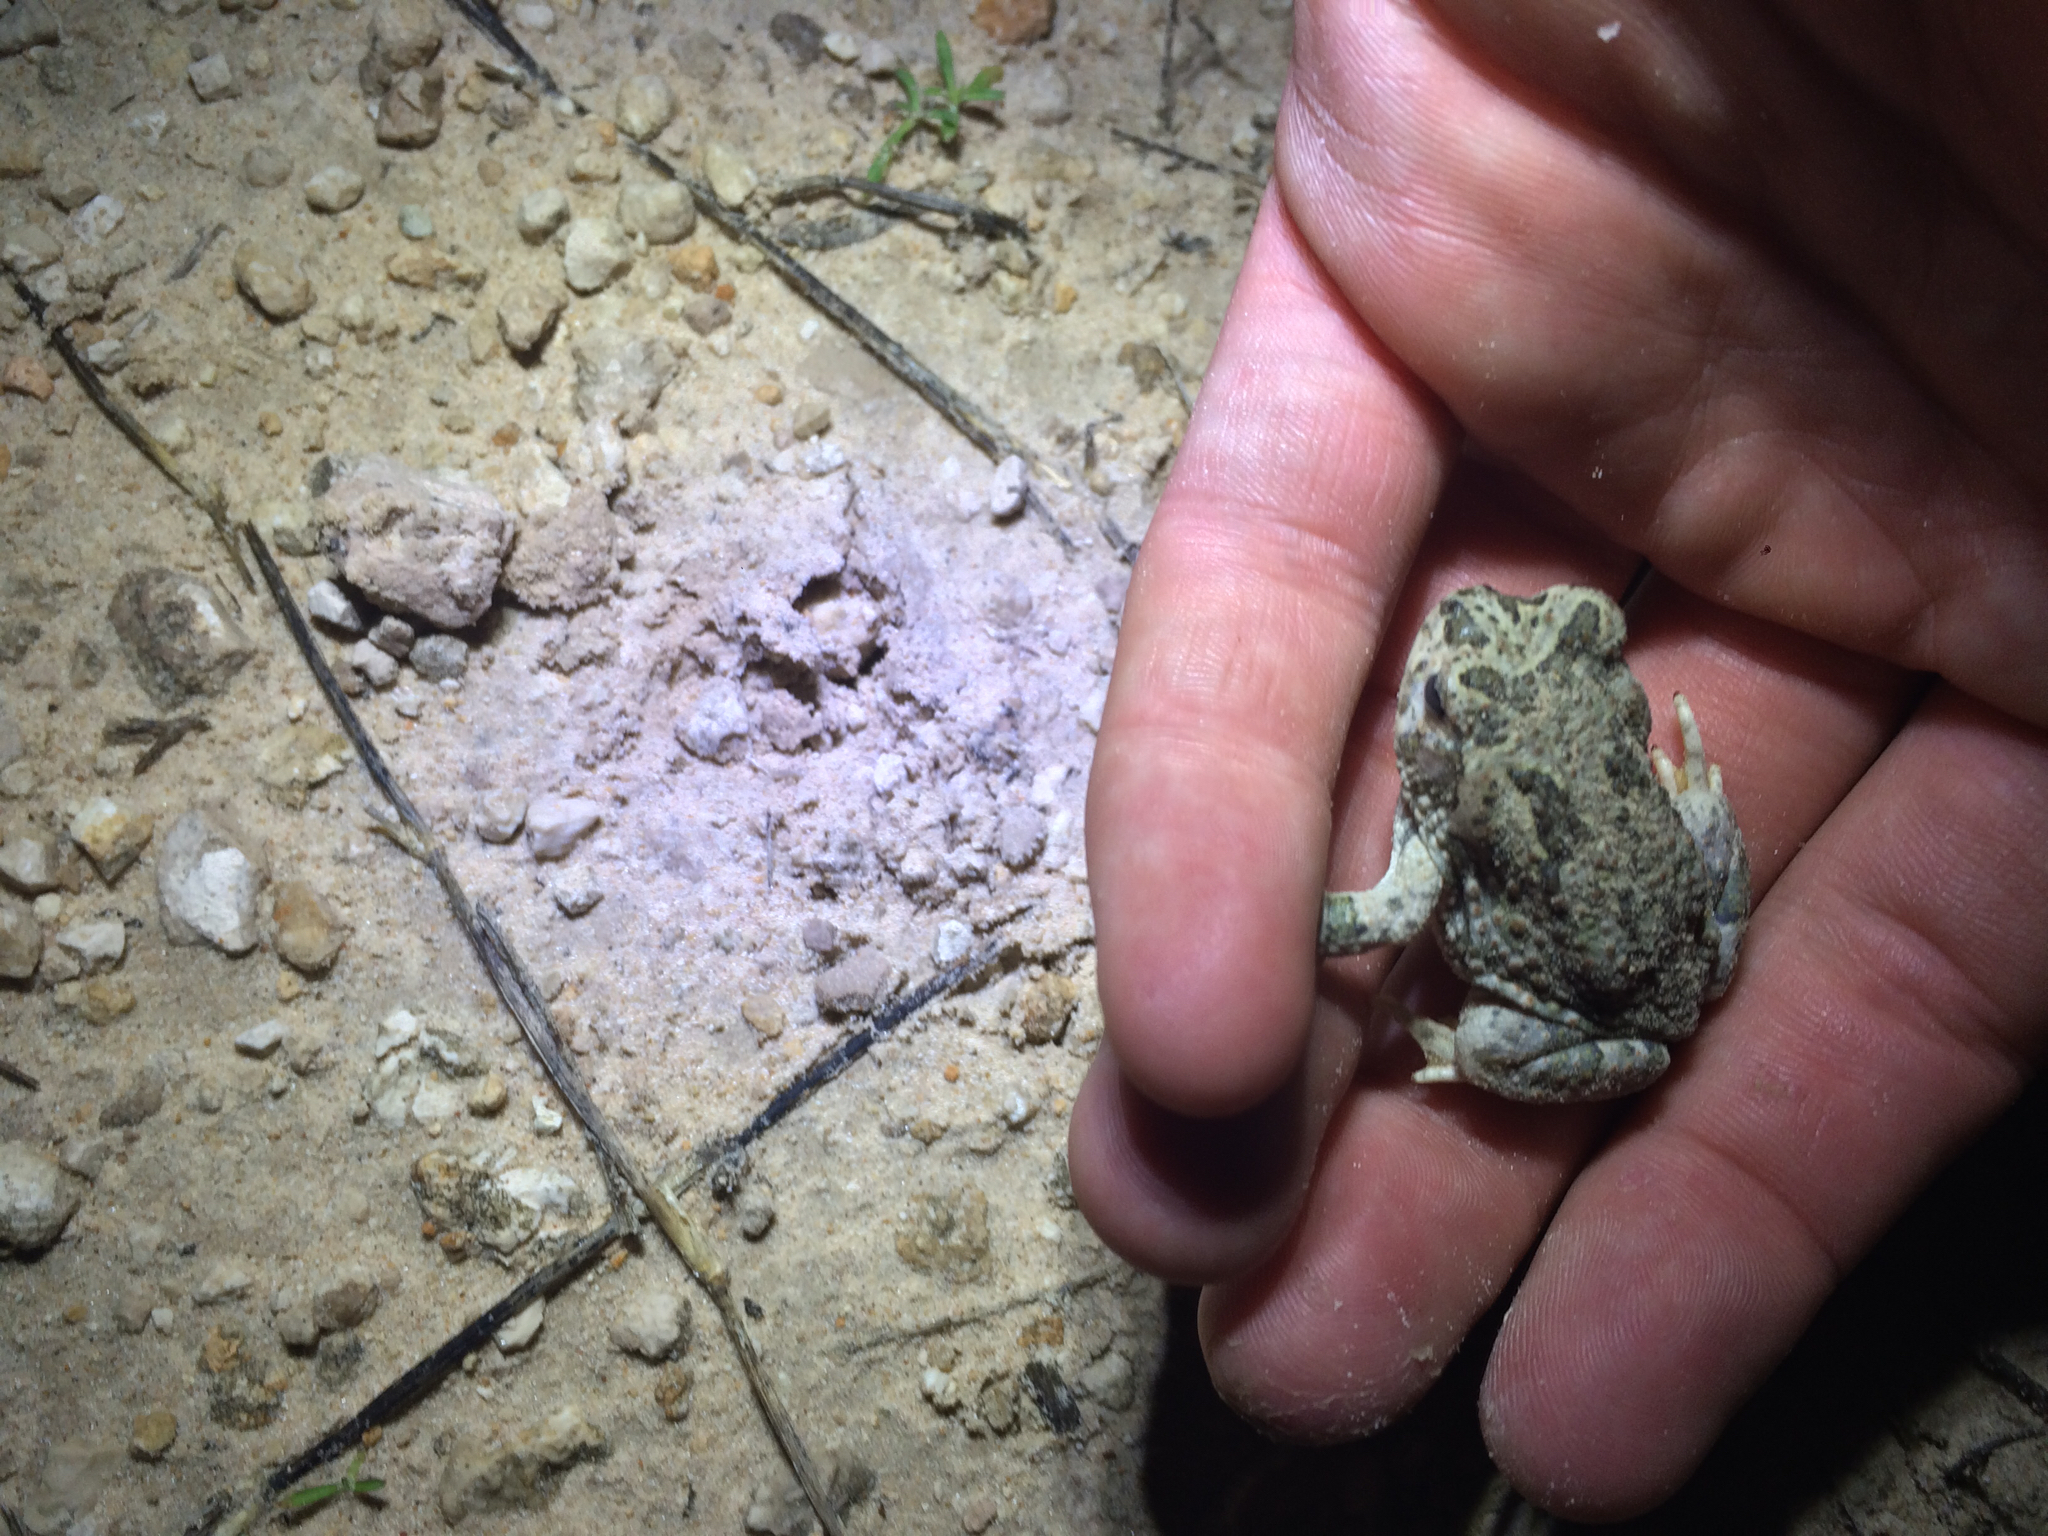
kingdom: Animalia
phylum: Chordata
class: Amphibia
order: Anura
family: Bufonidae
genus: Anaxyrus
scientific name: Anaxyrus speciosus
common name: Texas toad
